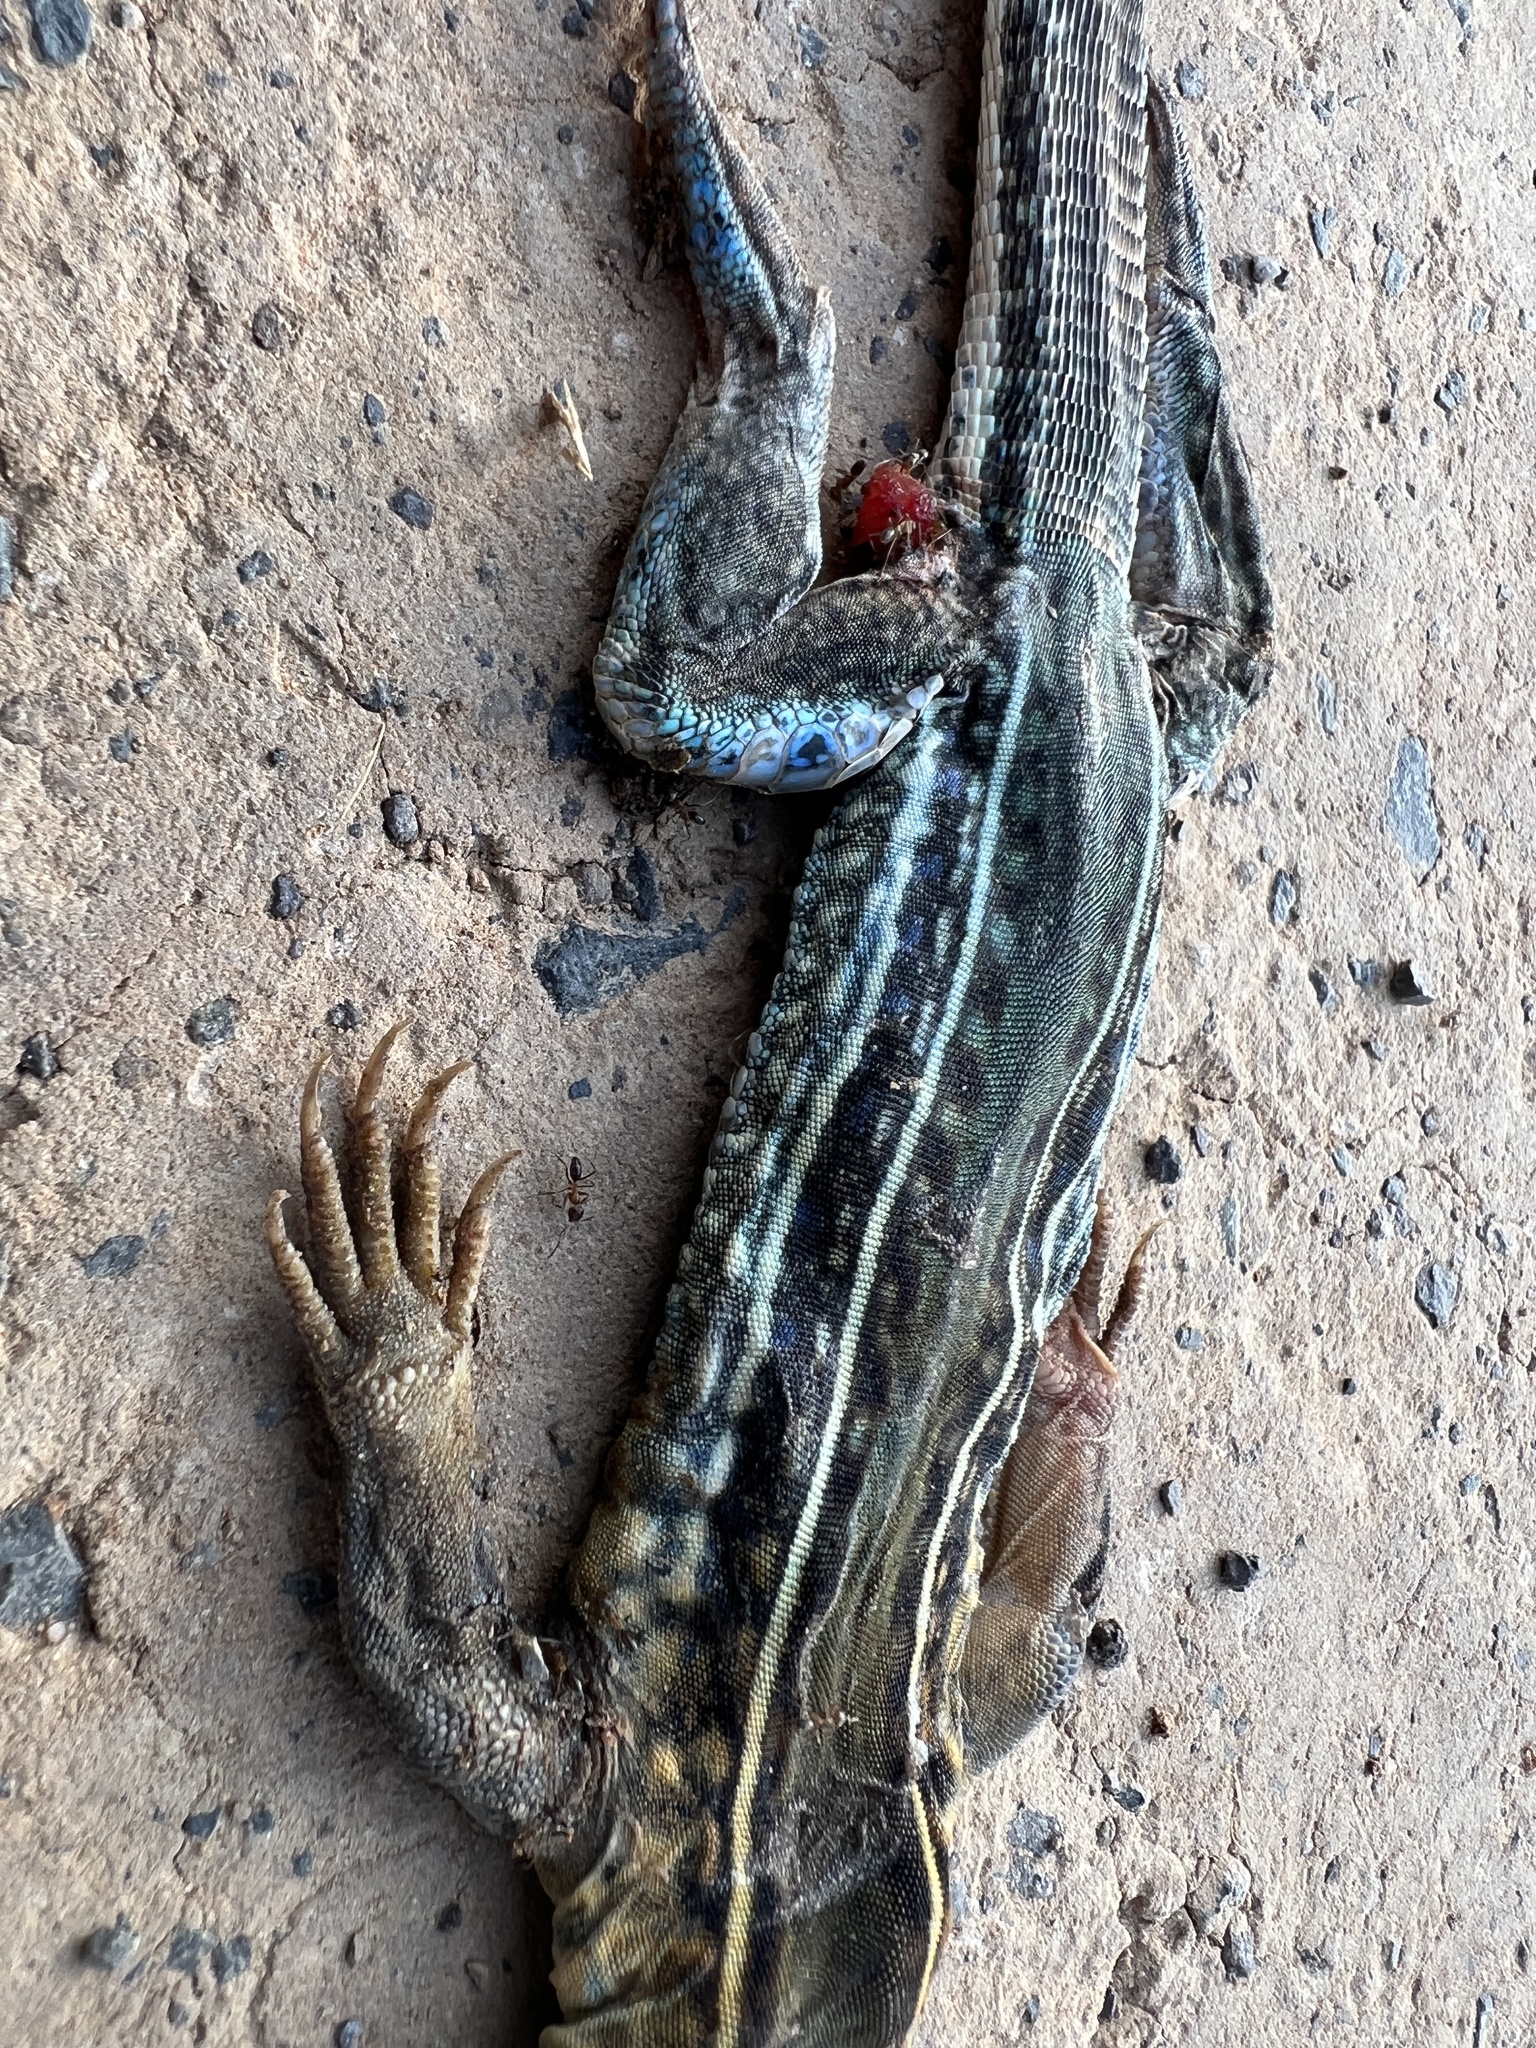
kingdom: Animalia
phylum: Chordata
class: Squamata
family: Teiidae
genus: Teius
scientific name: Teius teyou
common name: Four-toed tegu
